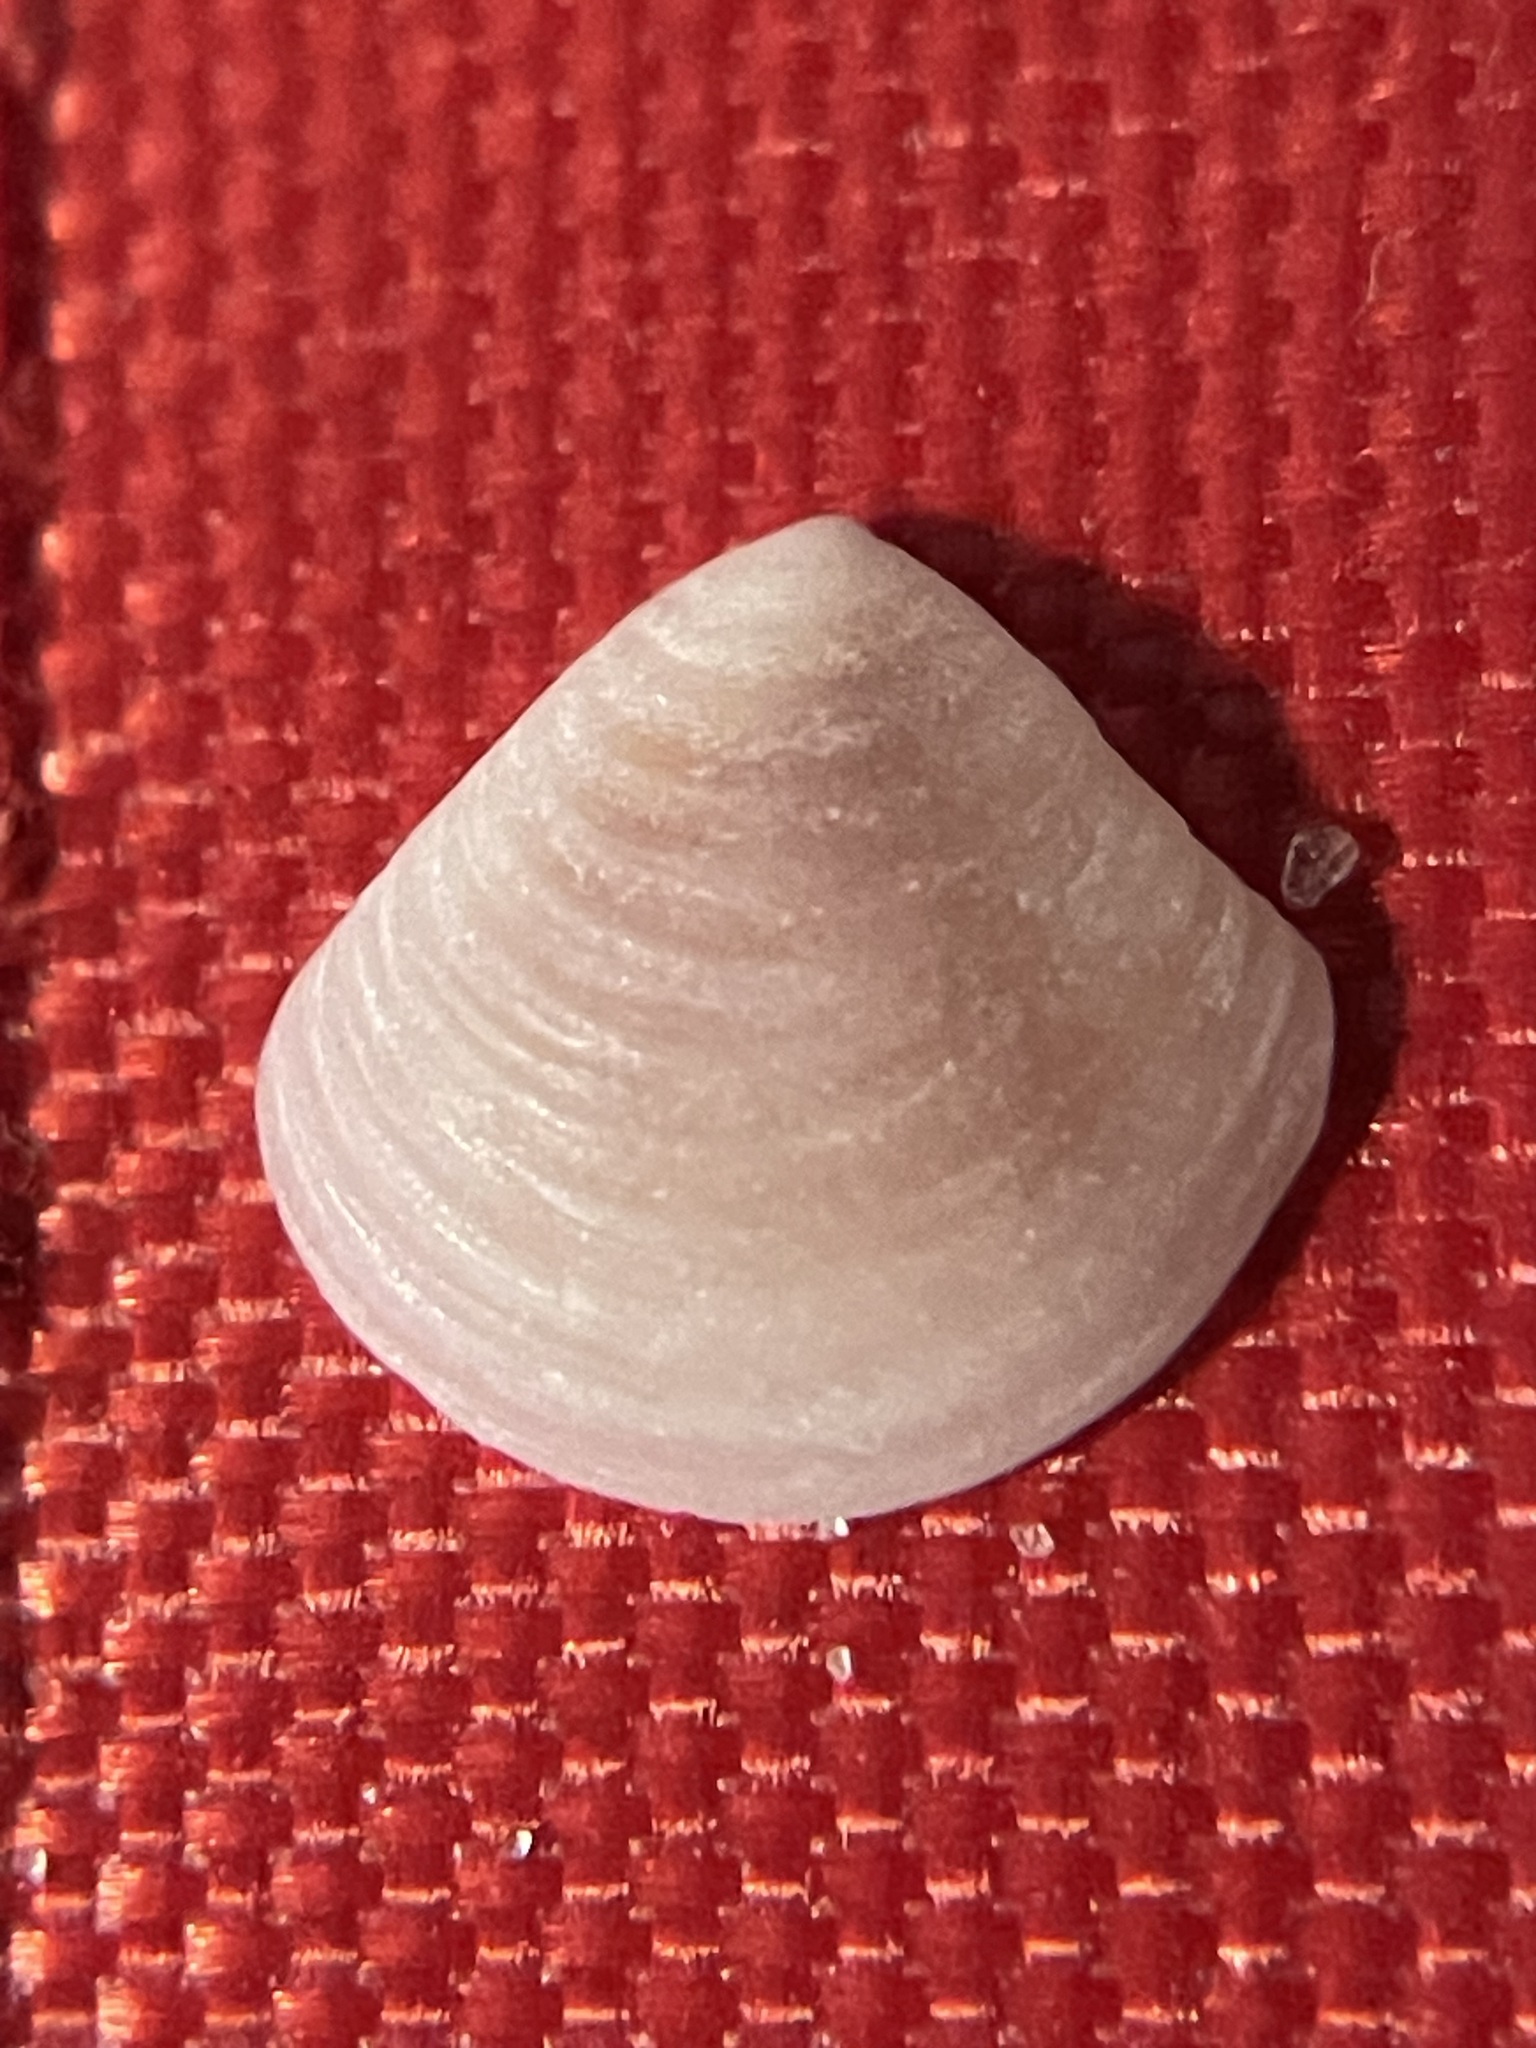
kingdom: Animalia
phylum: Mollusca
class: Bivalvia
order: Carditida
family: Crassatellidae
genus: Crassinella
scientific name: Crassinella lunulata
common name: Lunate crassinella
